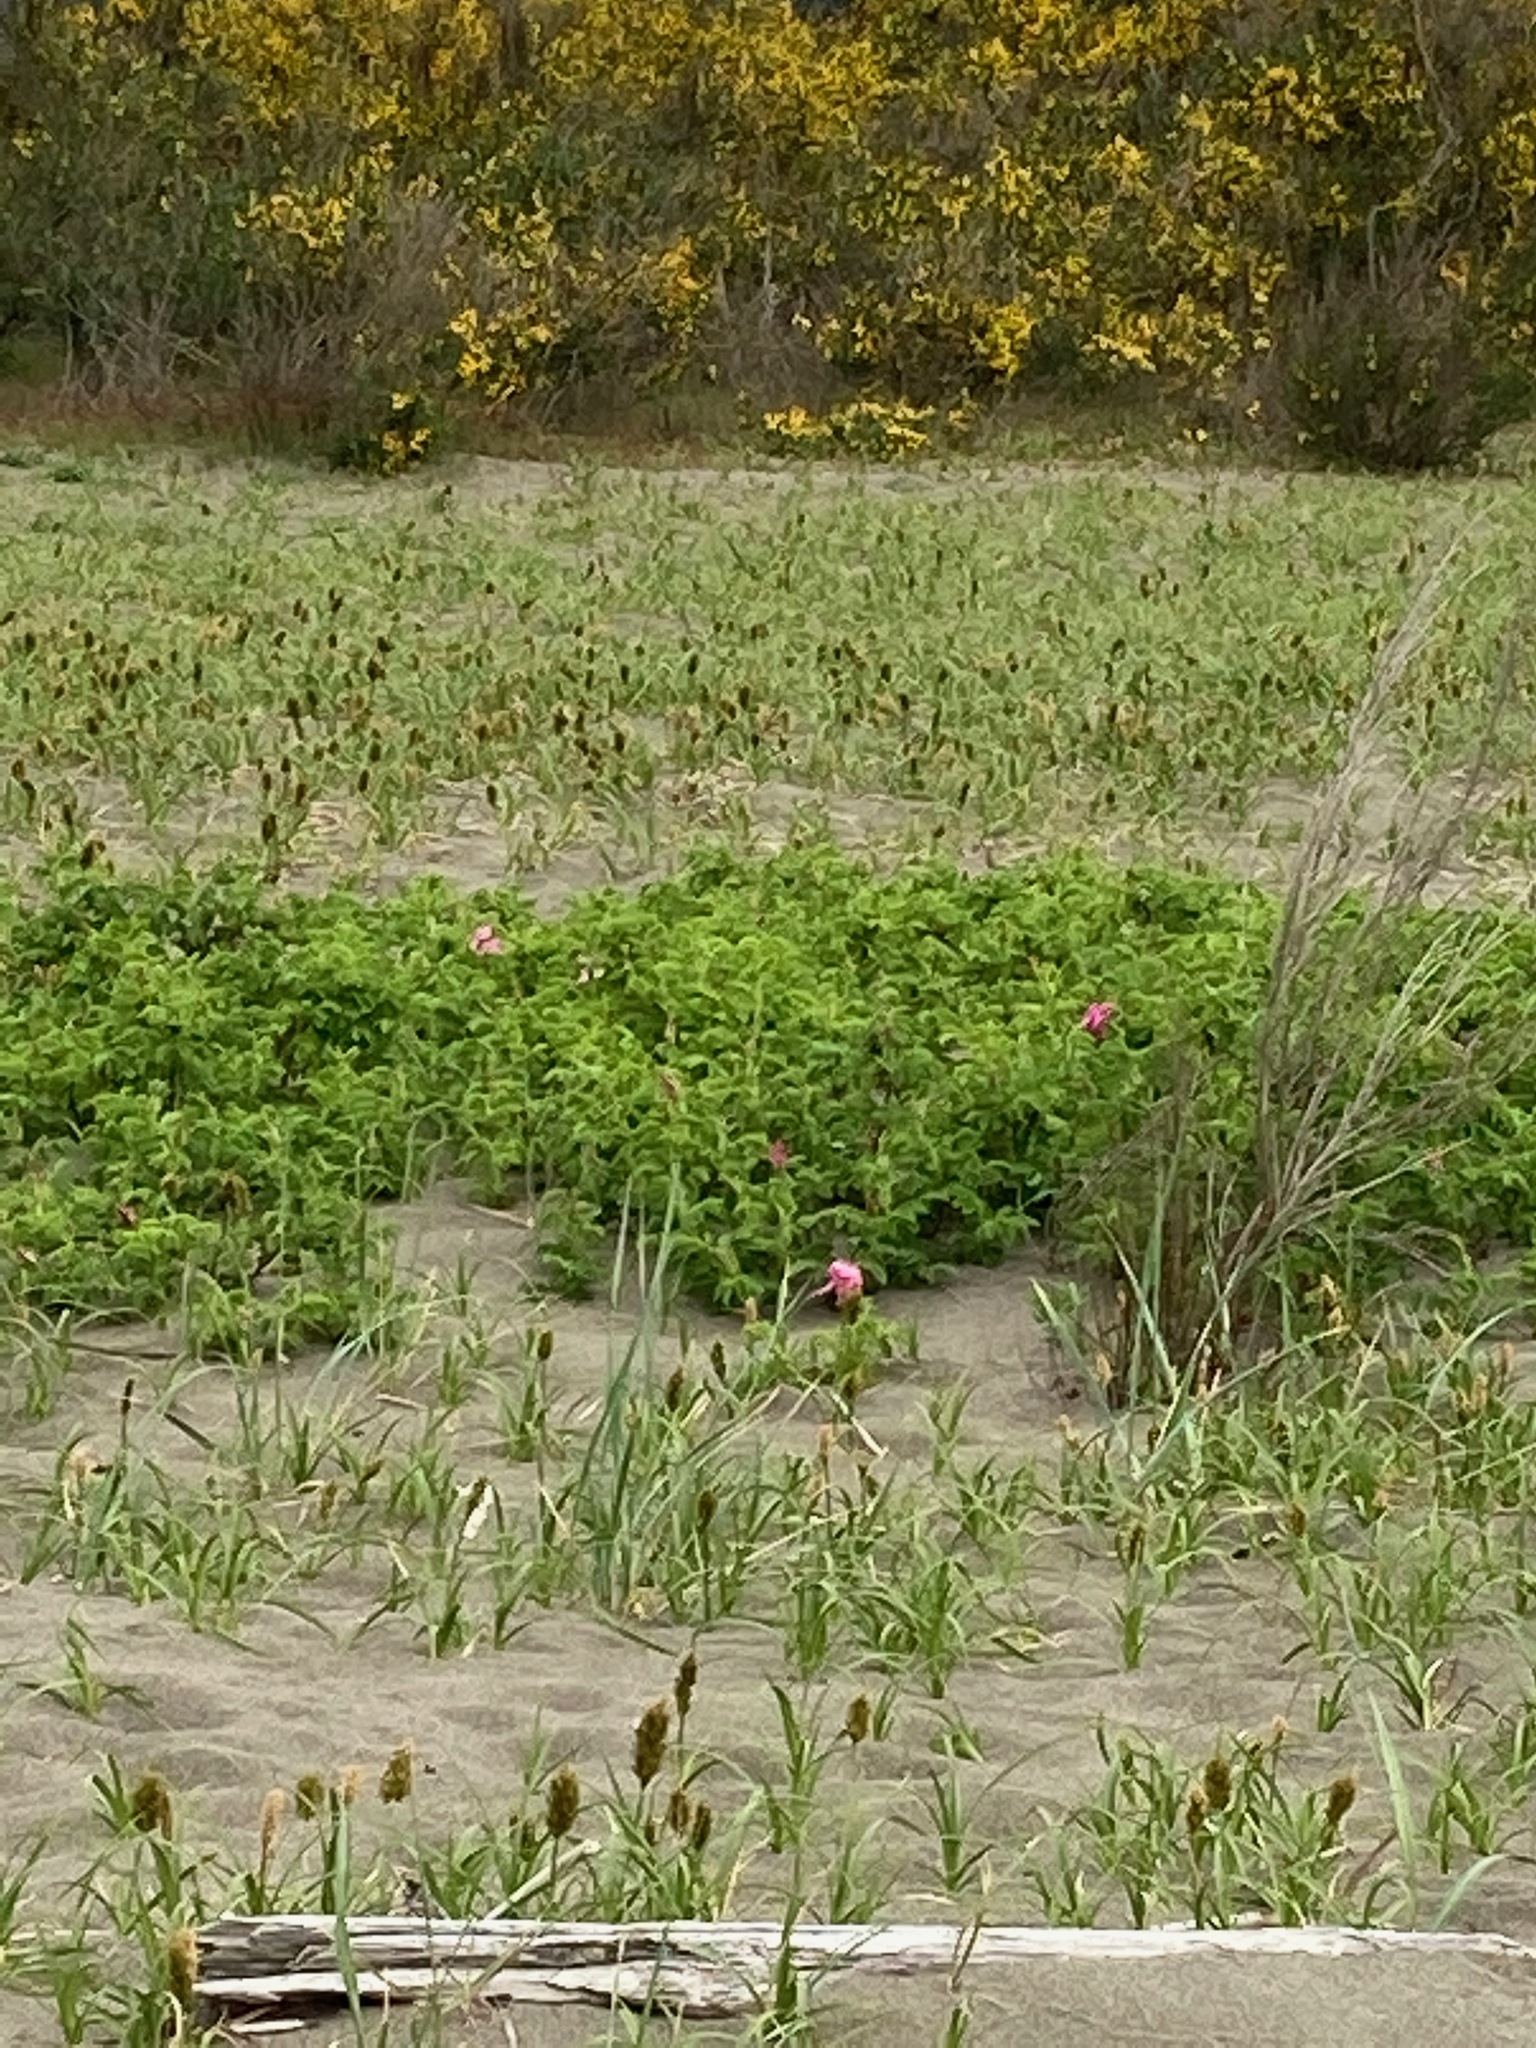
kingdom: Plantae
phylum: Tracheophyta
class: Magnoliopsida
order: Rosales
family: Rosaceae
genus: Rosa
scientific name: Rosa rugosa
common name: Japanese rose
